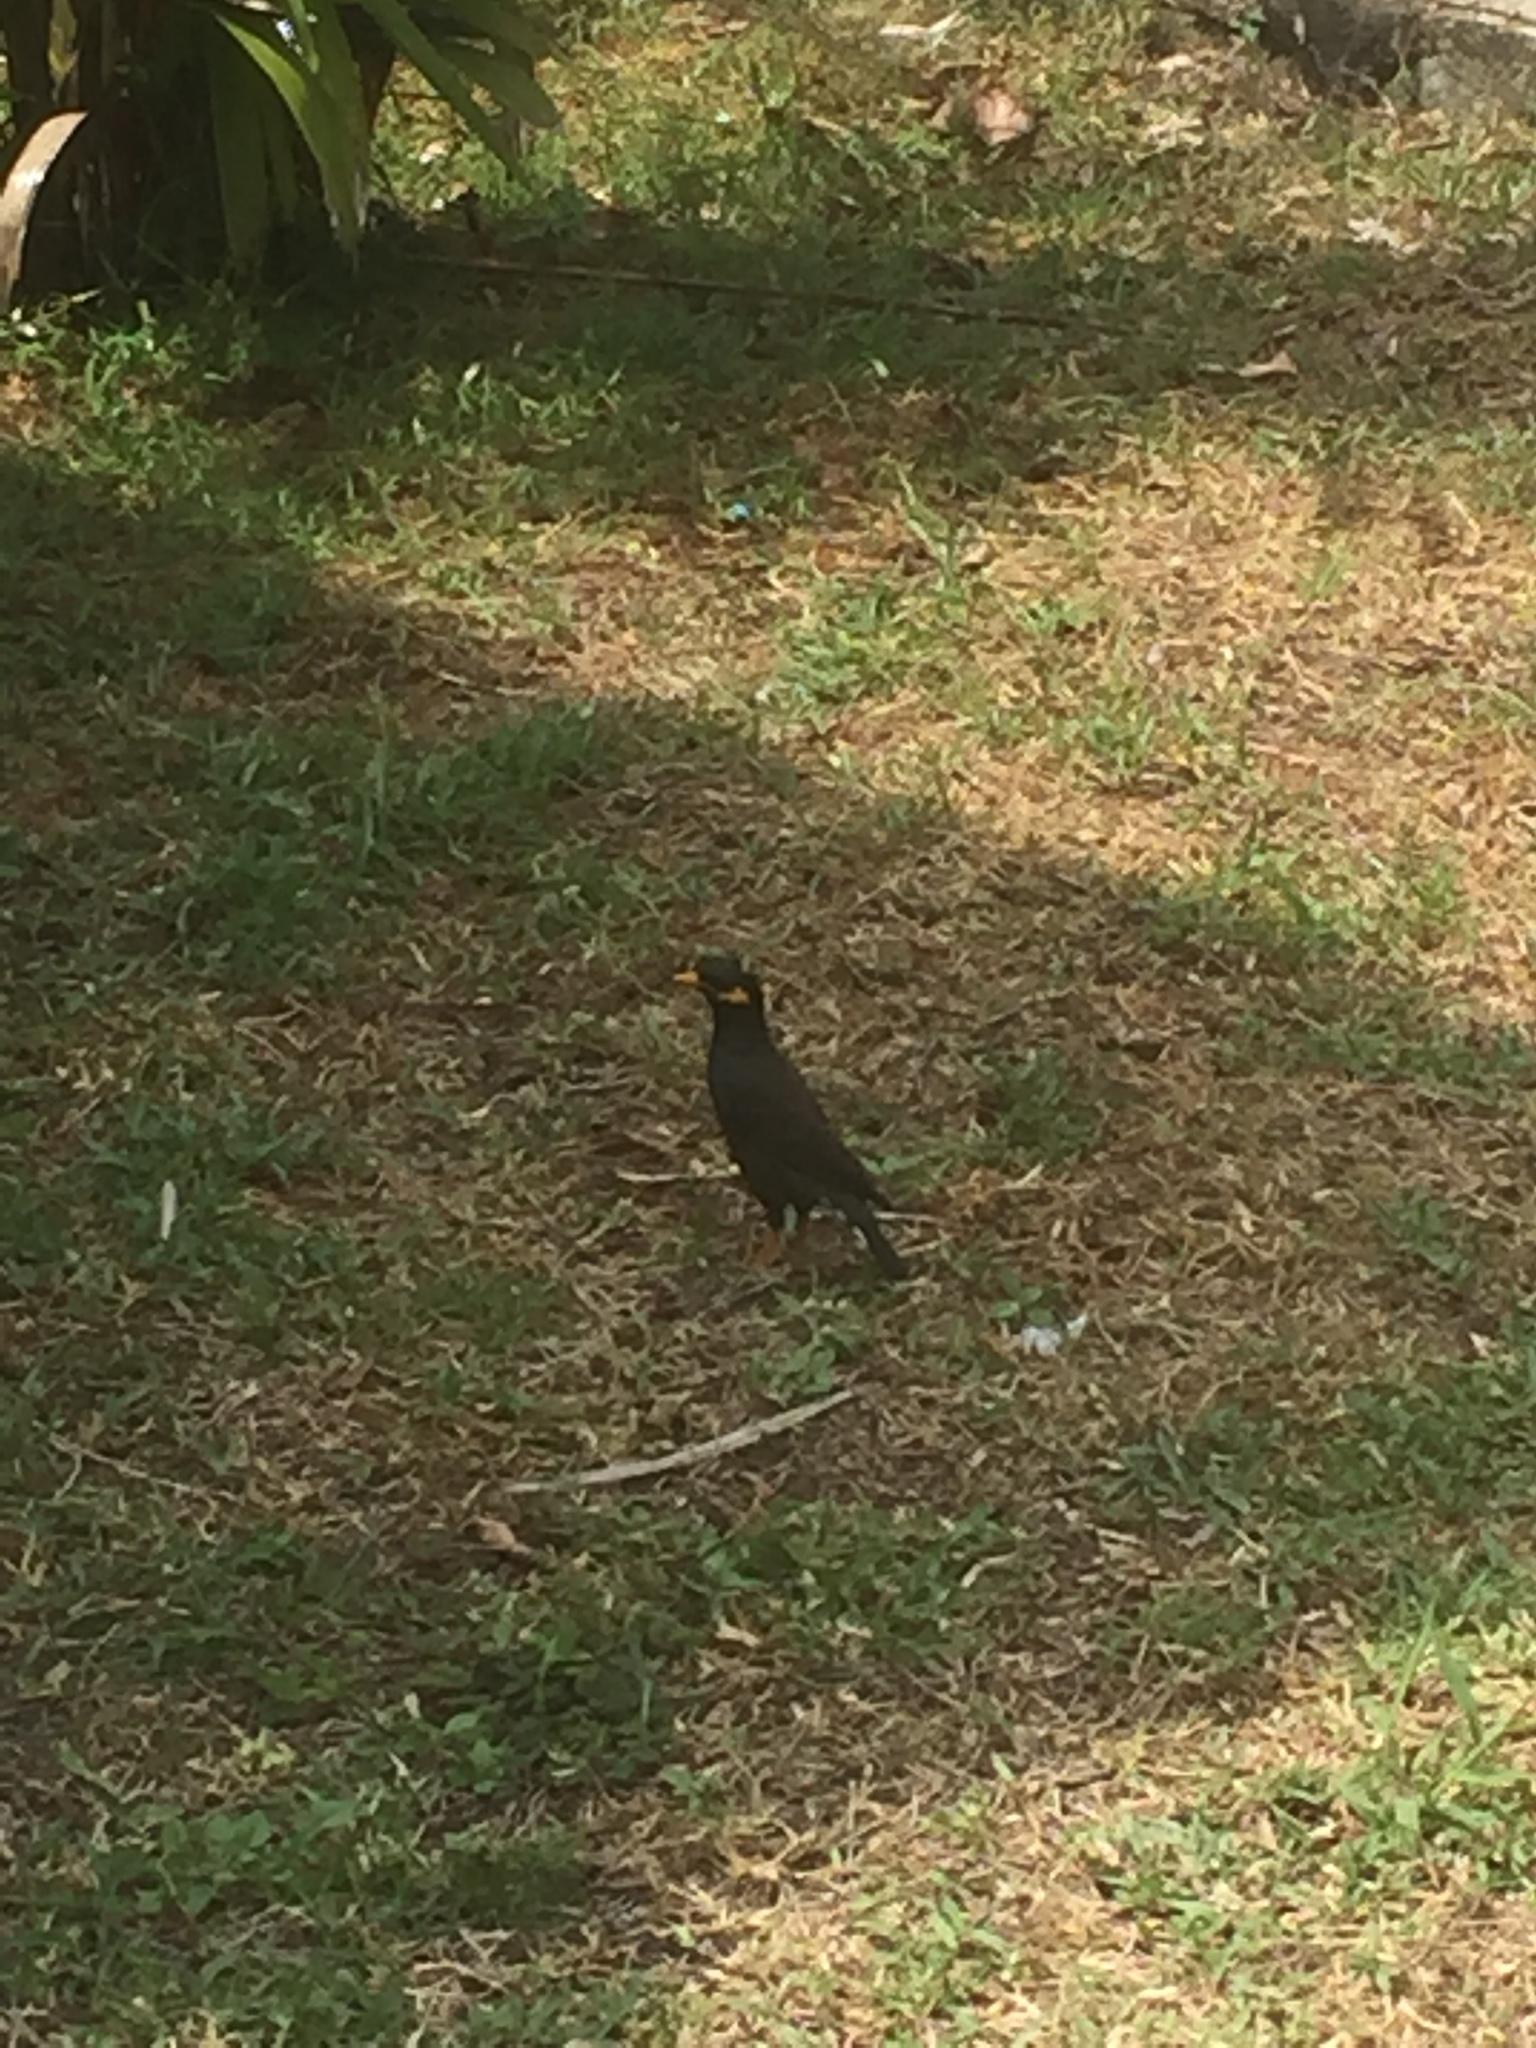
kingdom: Animalia
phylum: Chordata
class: Aves
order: Passeriformes
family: Sturnidae
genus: Acridotheres
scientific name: Acridotheres tristis
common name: Common myna
